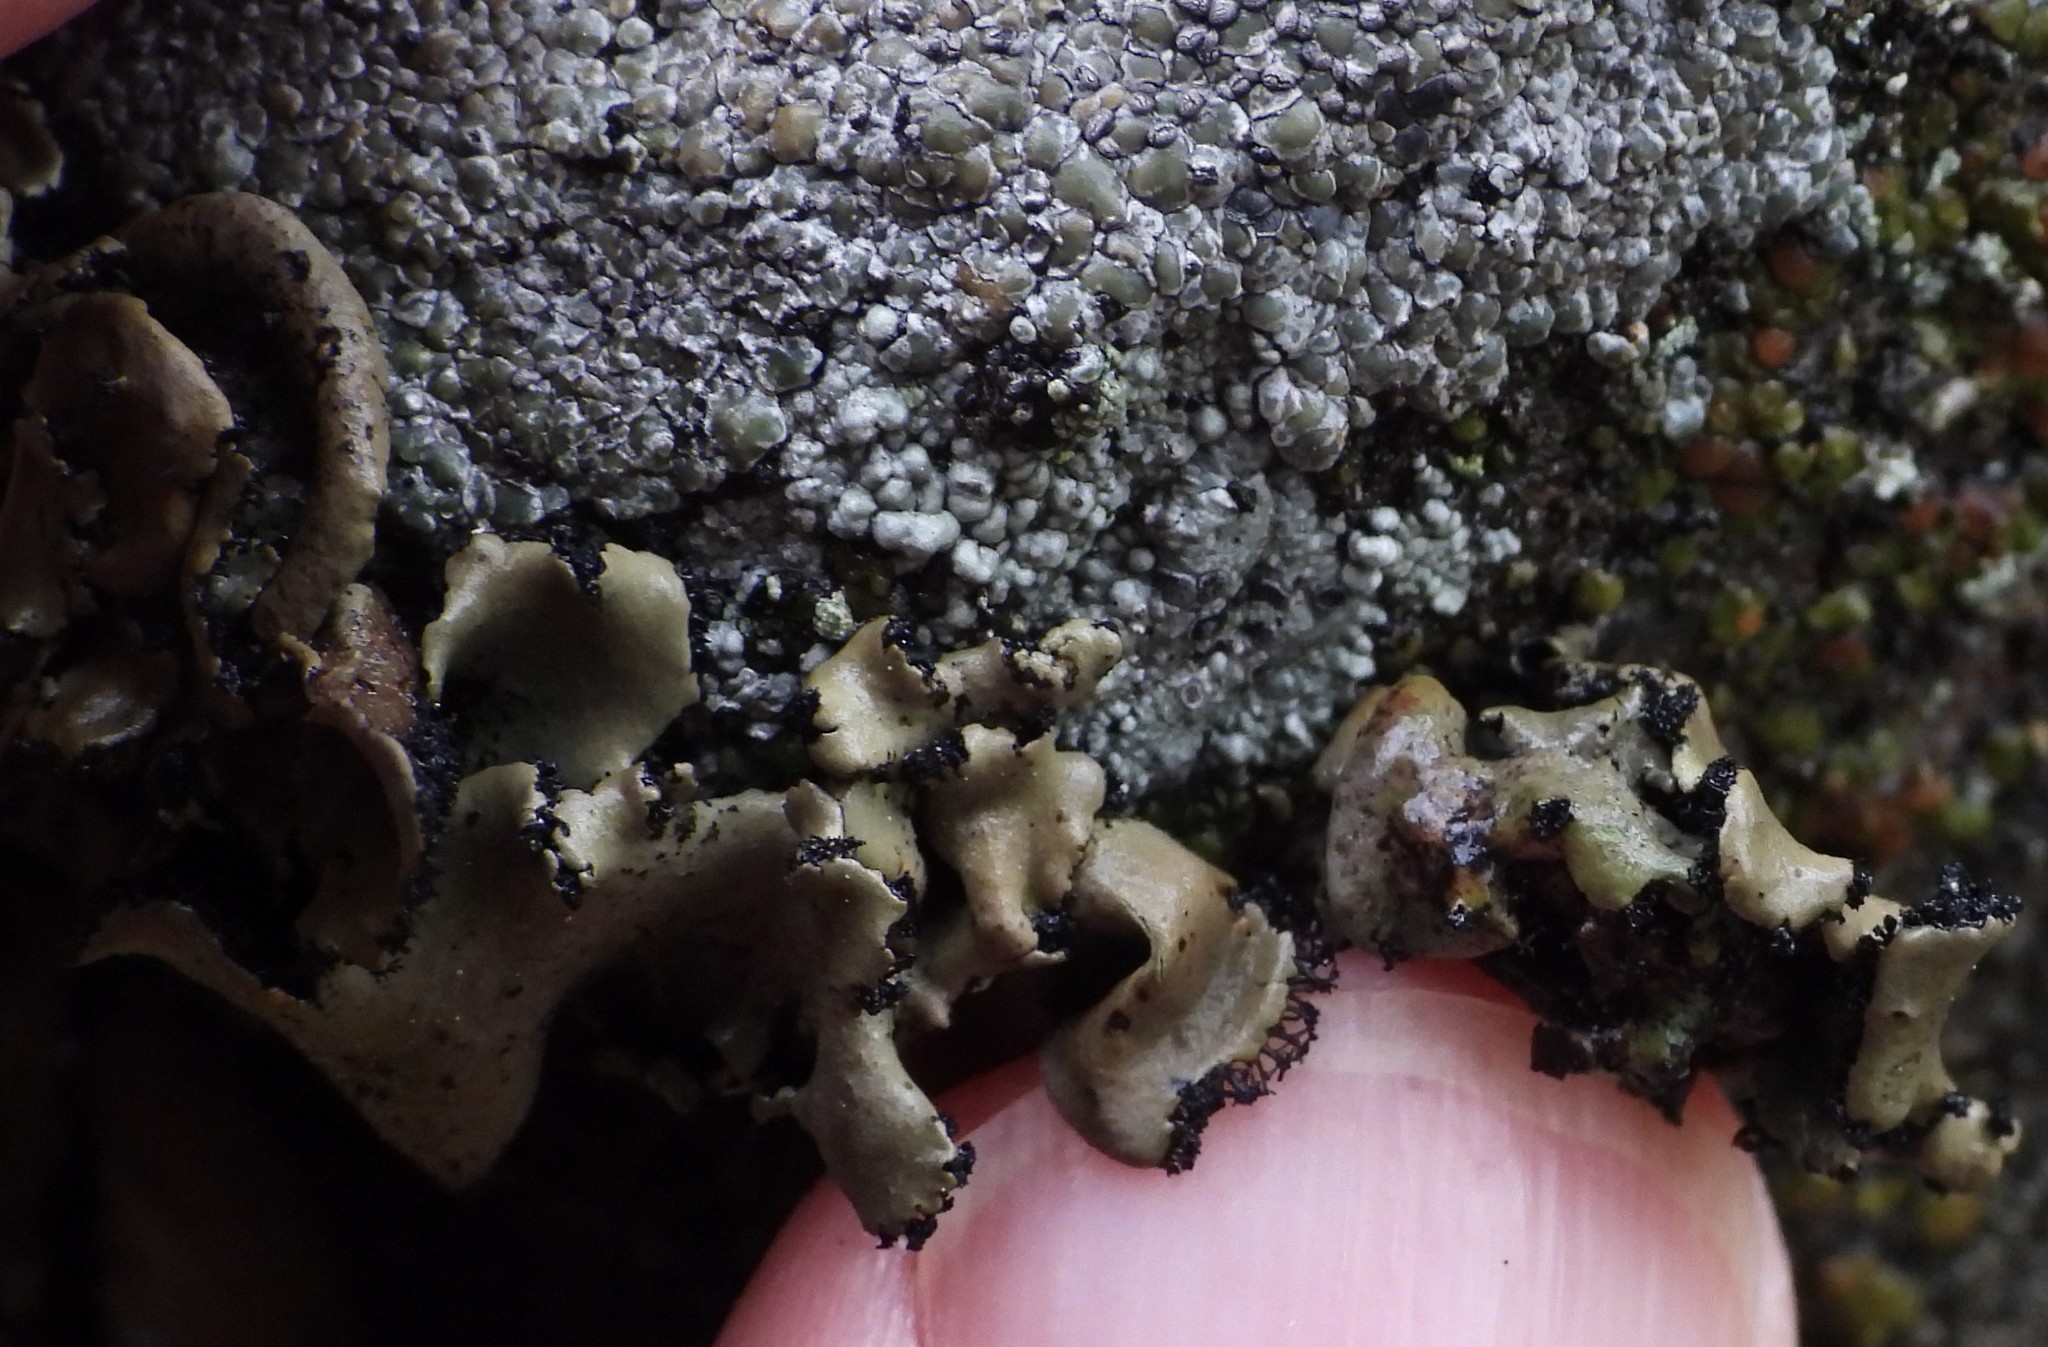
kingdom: Fungi
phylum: Ascomycota
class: Lecanoromycetes
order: Umbilicariales
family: Umbilicariaceae
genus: Umbilicaria
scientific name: Umbilicaria polyrrhiza
